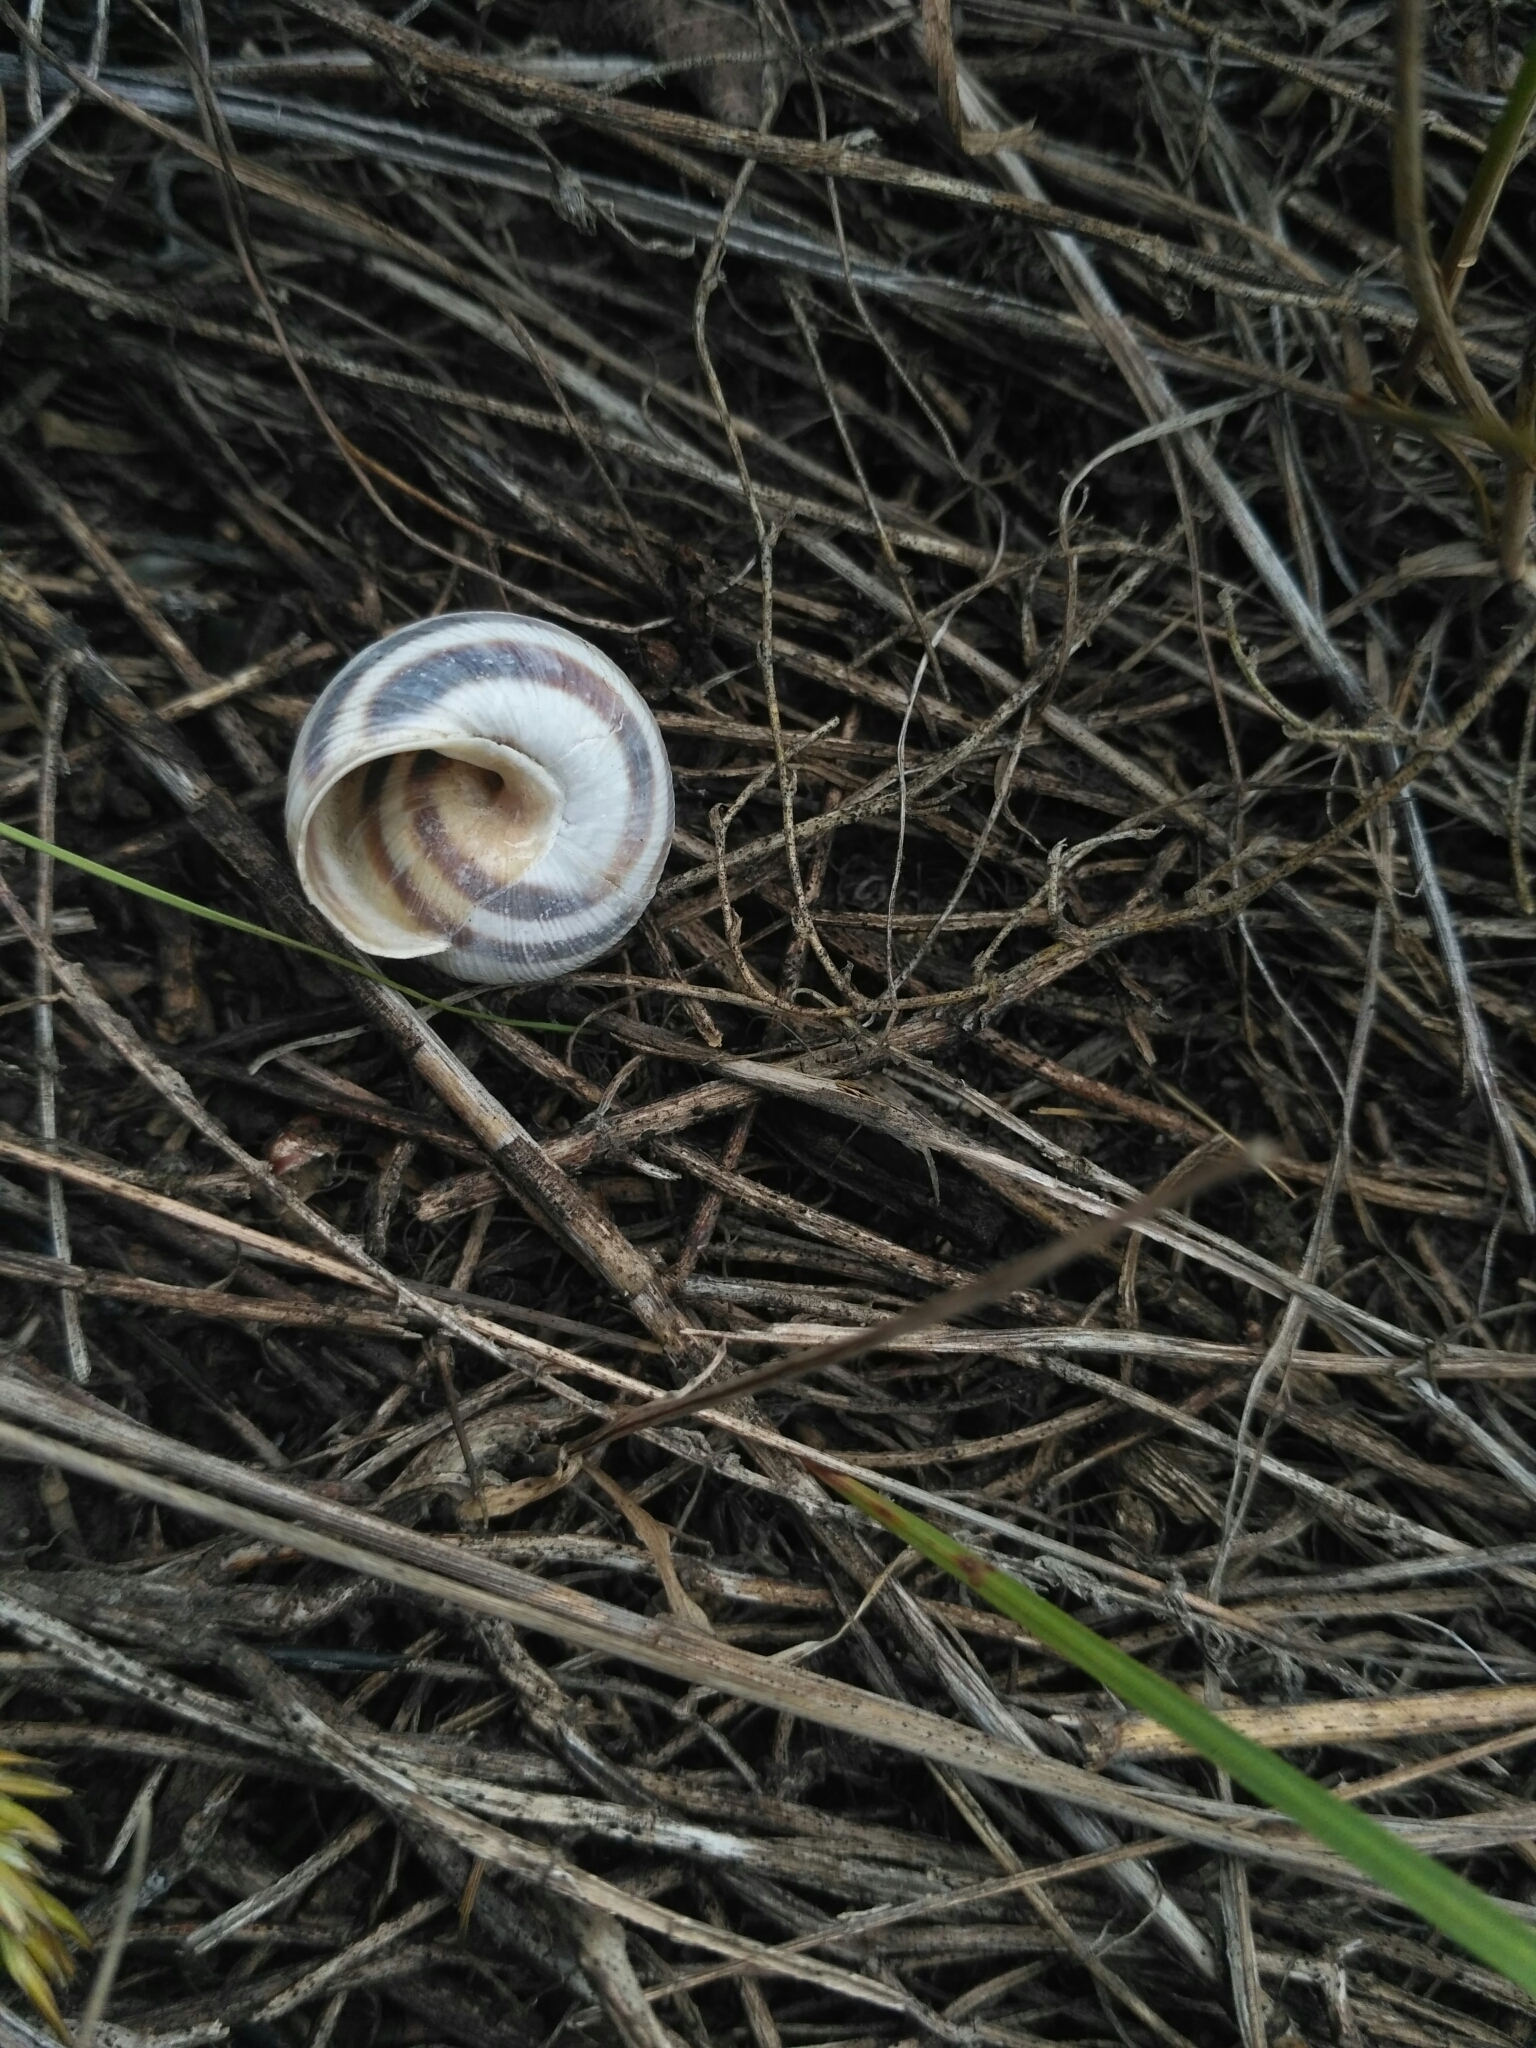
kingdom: Animalia
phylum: Mollusca
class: Gastropoda
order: Stylommatophora
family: Helicidae
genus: Caucasotachea
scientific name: Caucasotachea vindobonensis
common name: European helicid land snail
